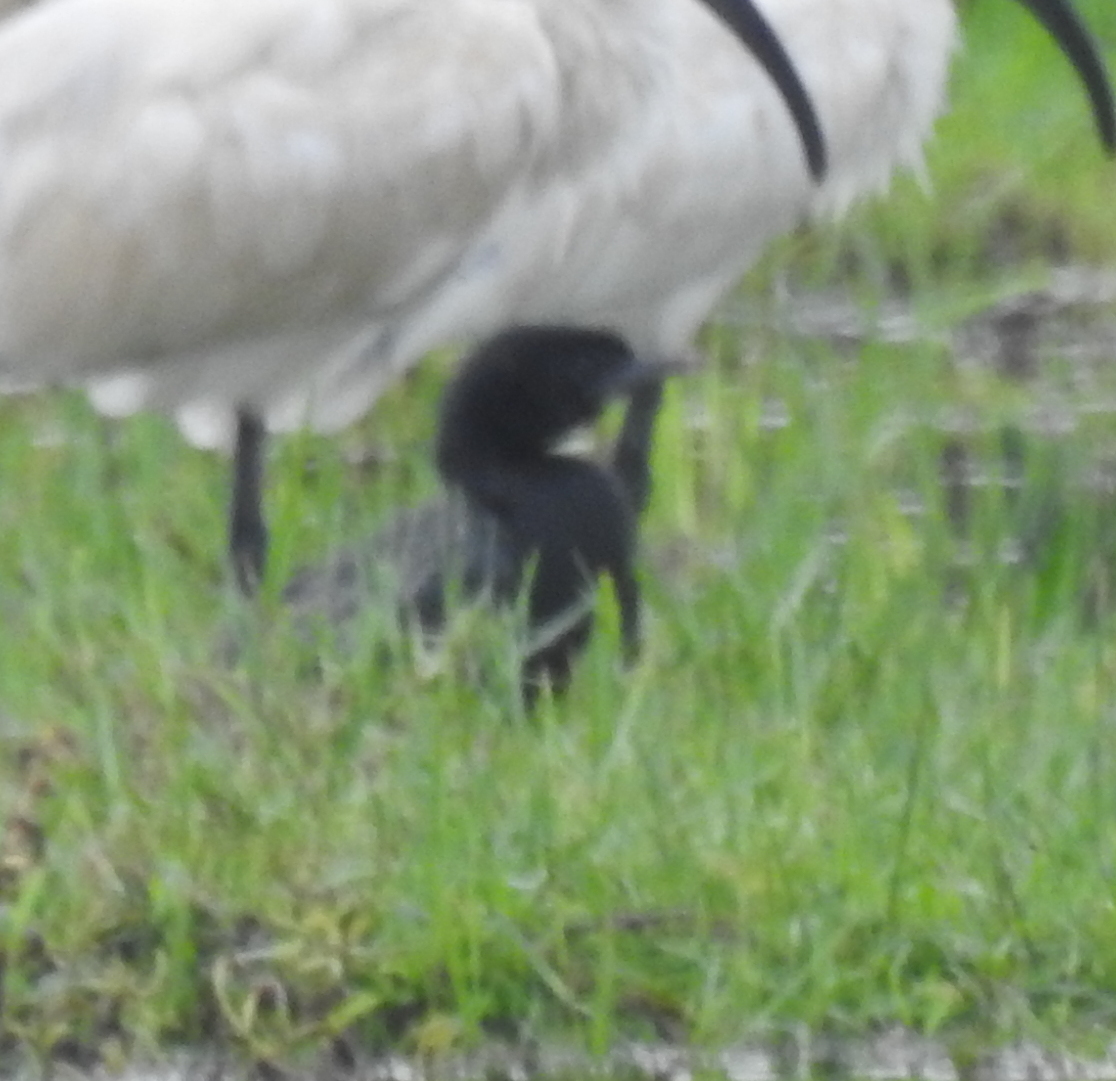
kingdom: Animalia
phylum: Chordata
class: Aves
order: Suliformes
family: Phalacrocoracidae
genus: Microcarbo
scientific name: Microcarbo niger
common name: Little cormorant
